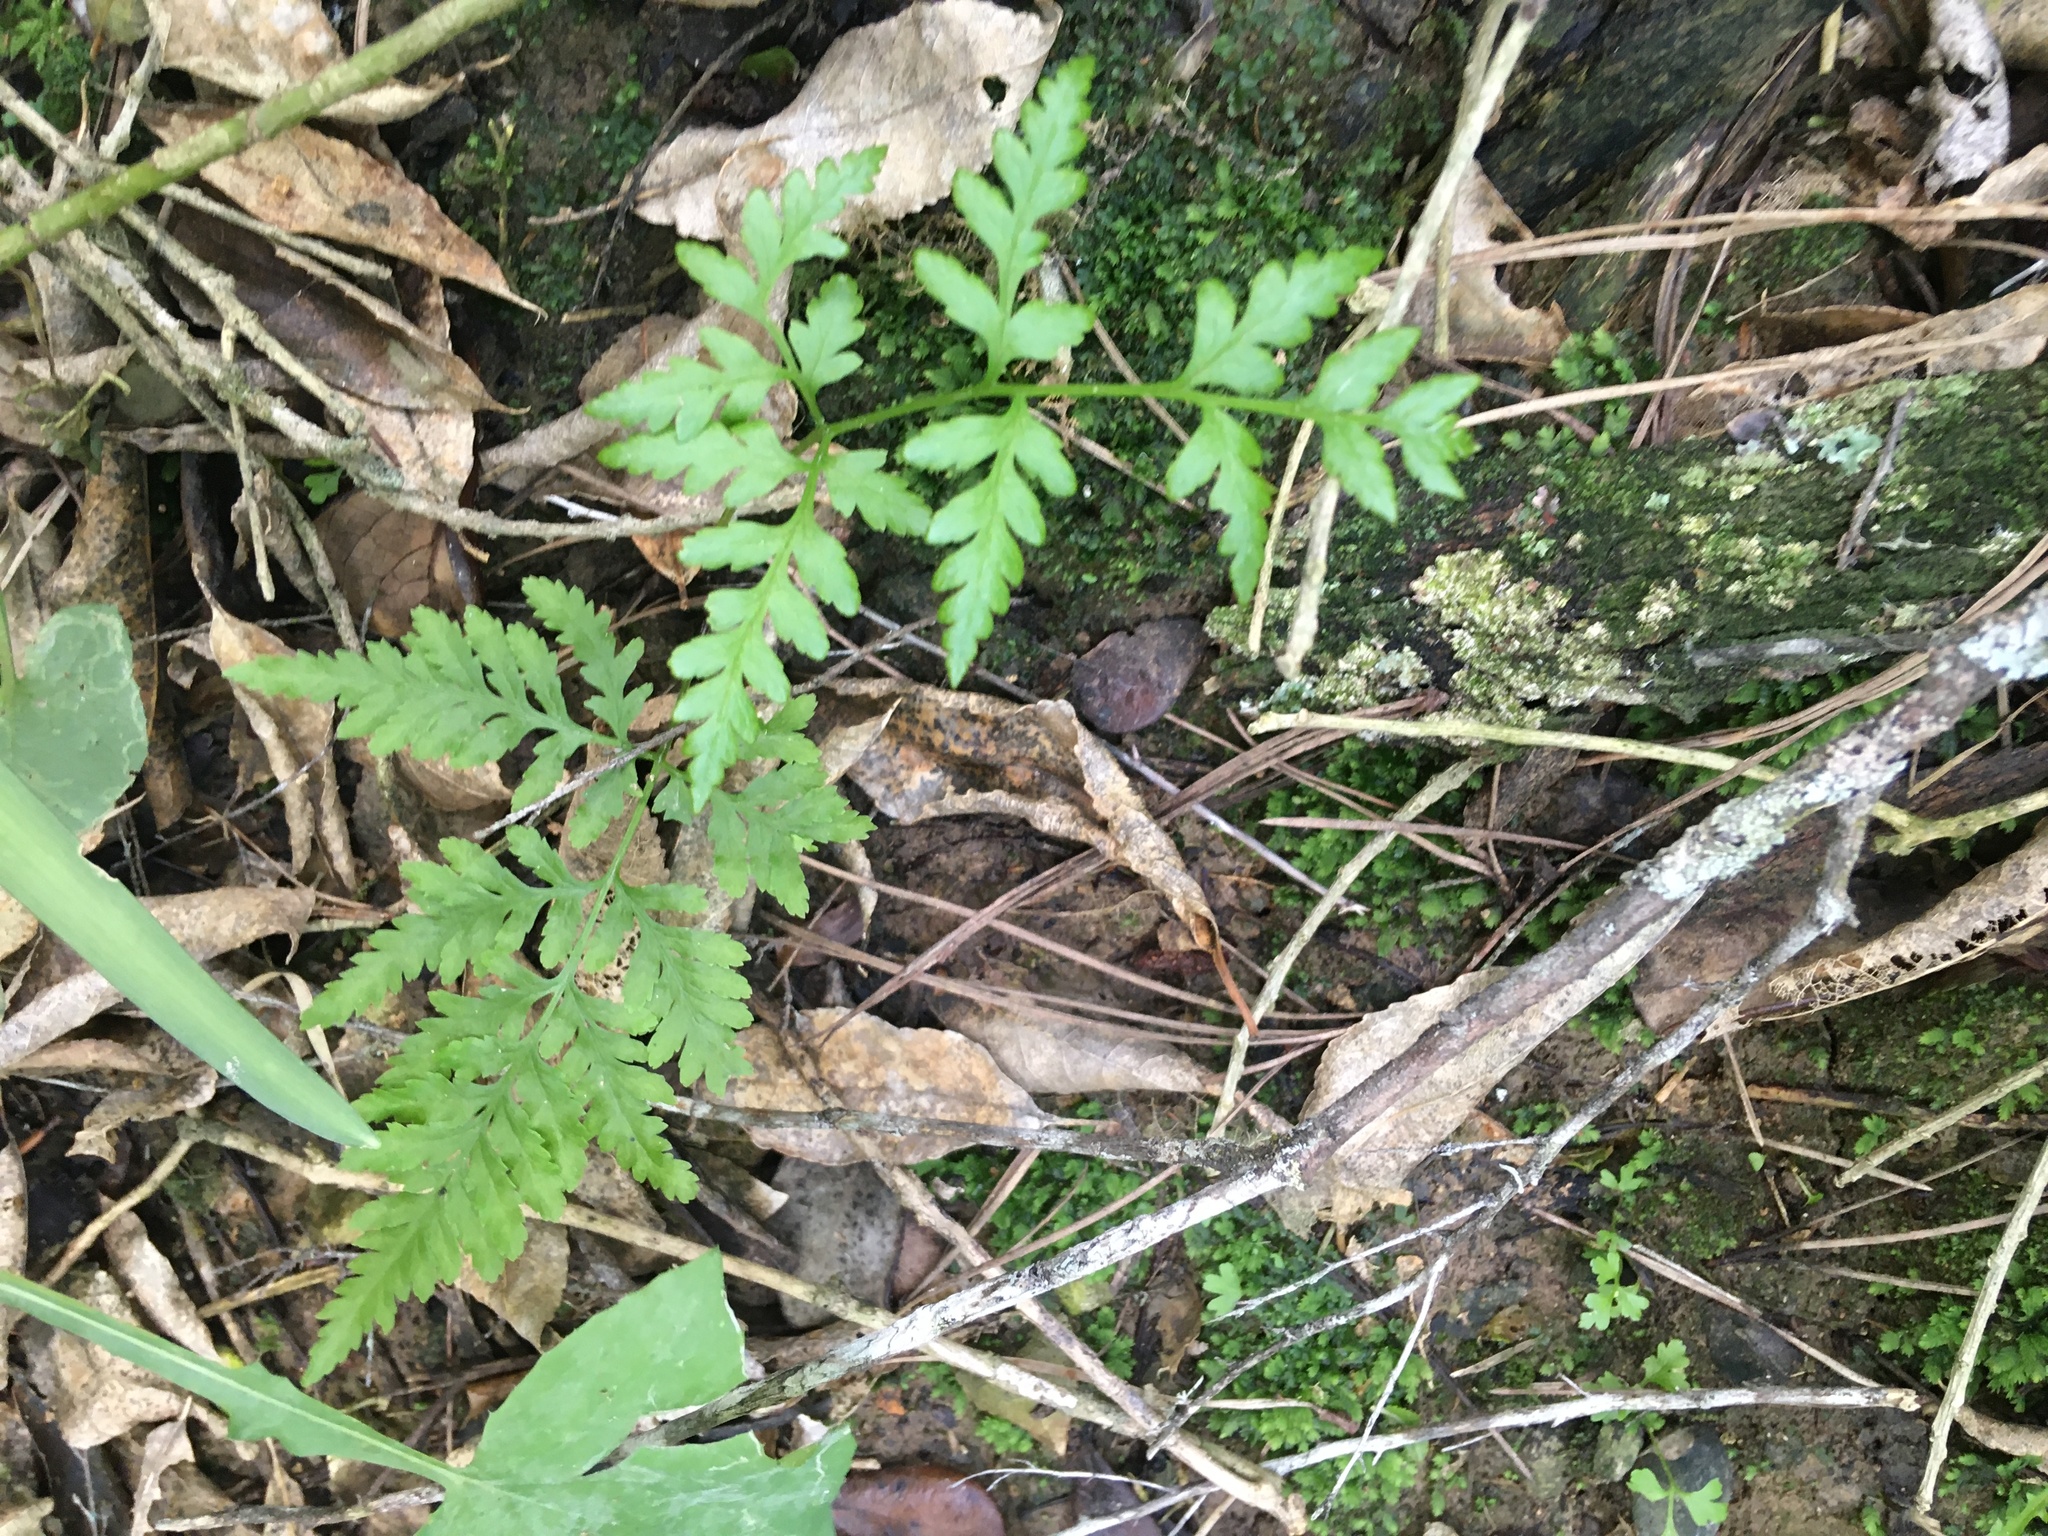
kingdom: Plantae
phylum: Tracheophyta
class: Polypodiopsida
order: Polypodiales
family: Pteridaceae
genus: Pteris
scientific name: Pteris tremula
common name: Australian brake
